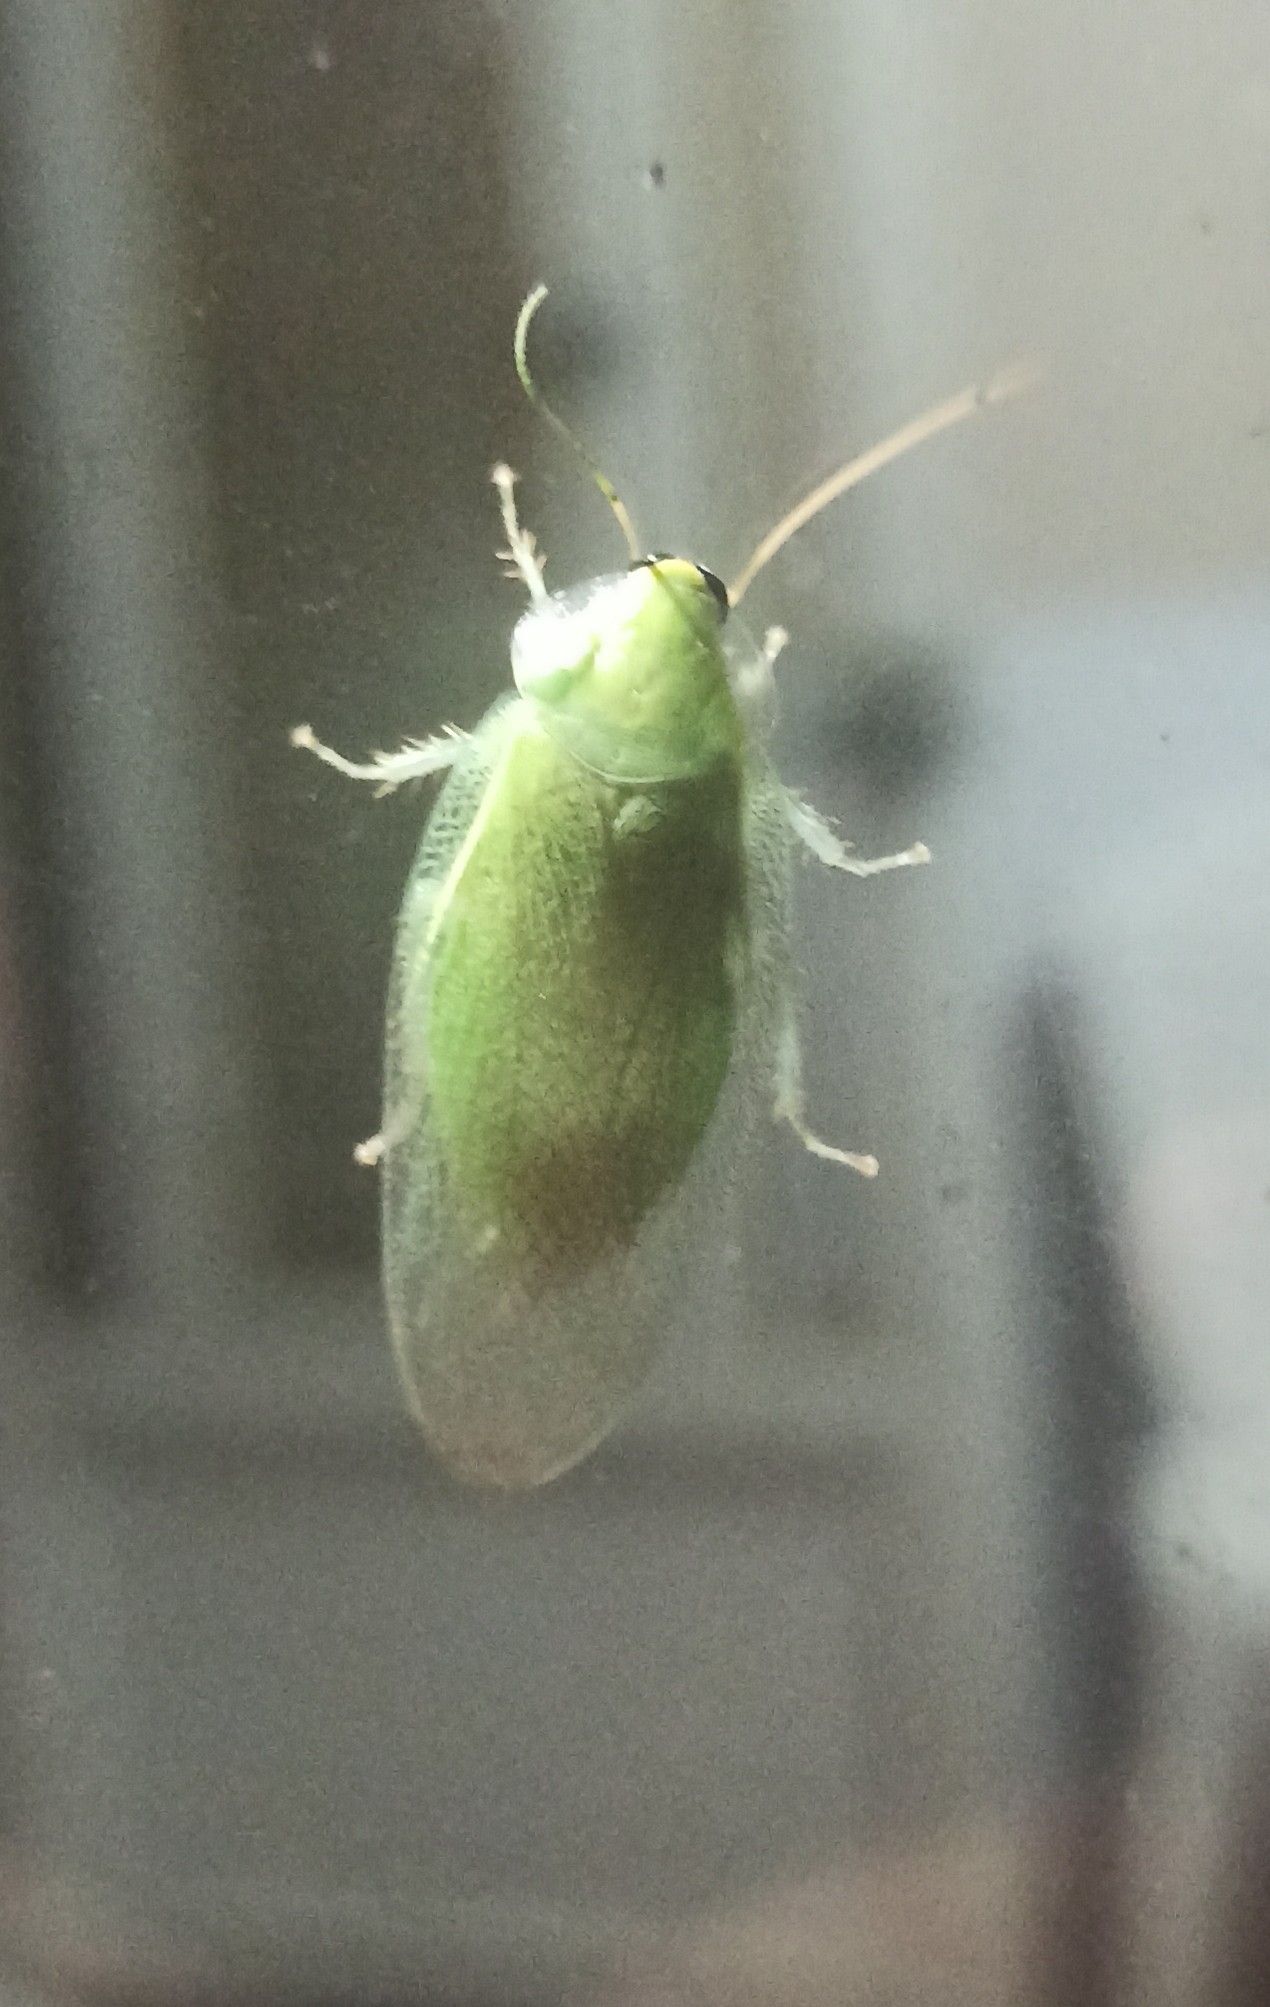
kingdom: Animalia
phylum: Arthropoda
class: Insecta
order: Blattodea
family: Blaberidae
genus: Panchlora
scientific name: Panchlora nivea
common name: Cuban cockroach
